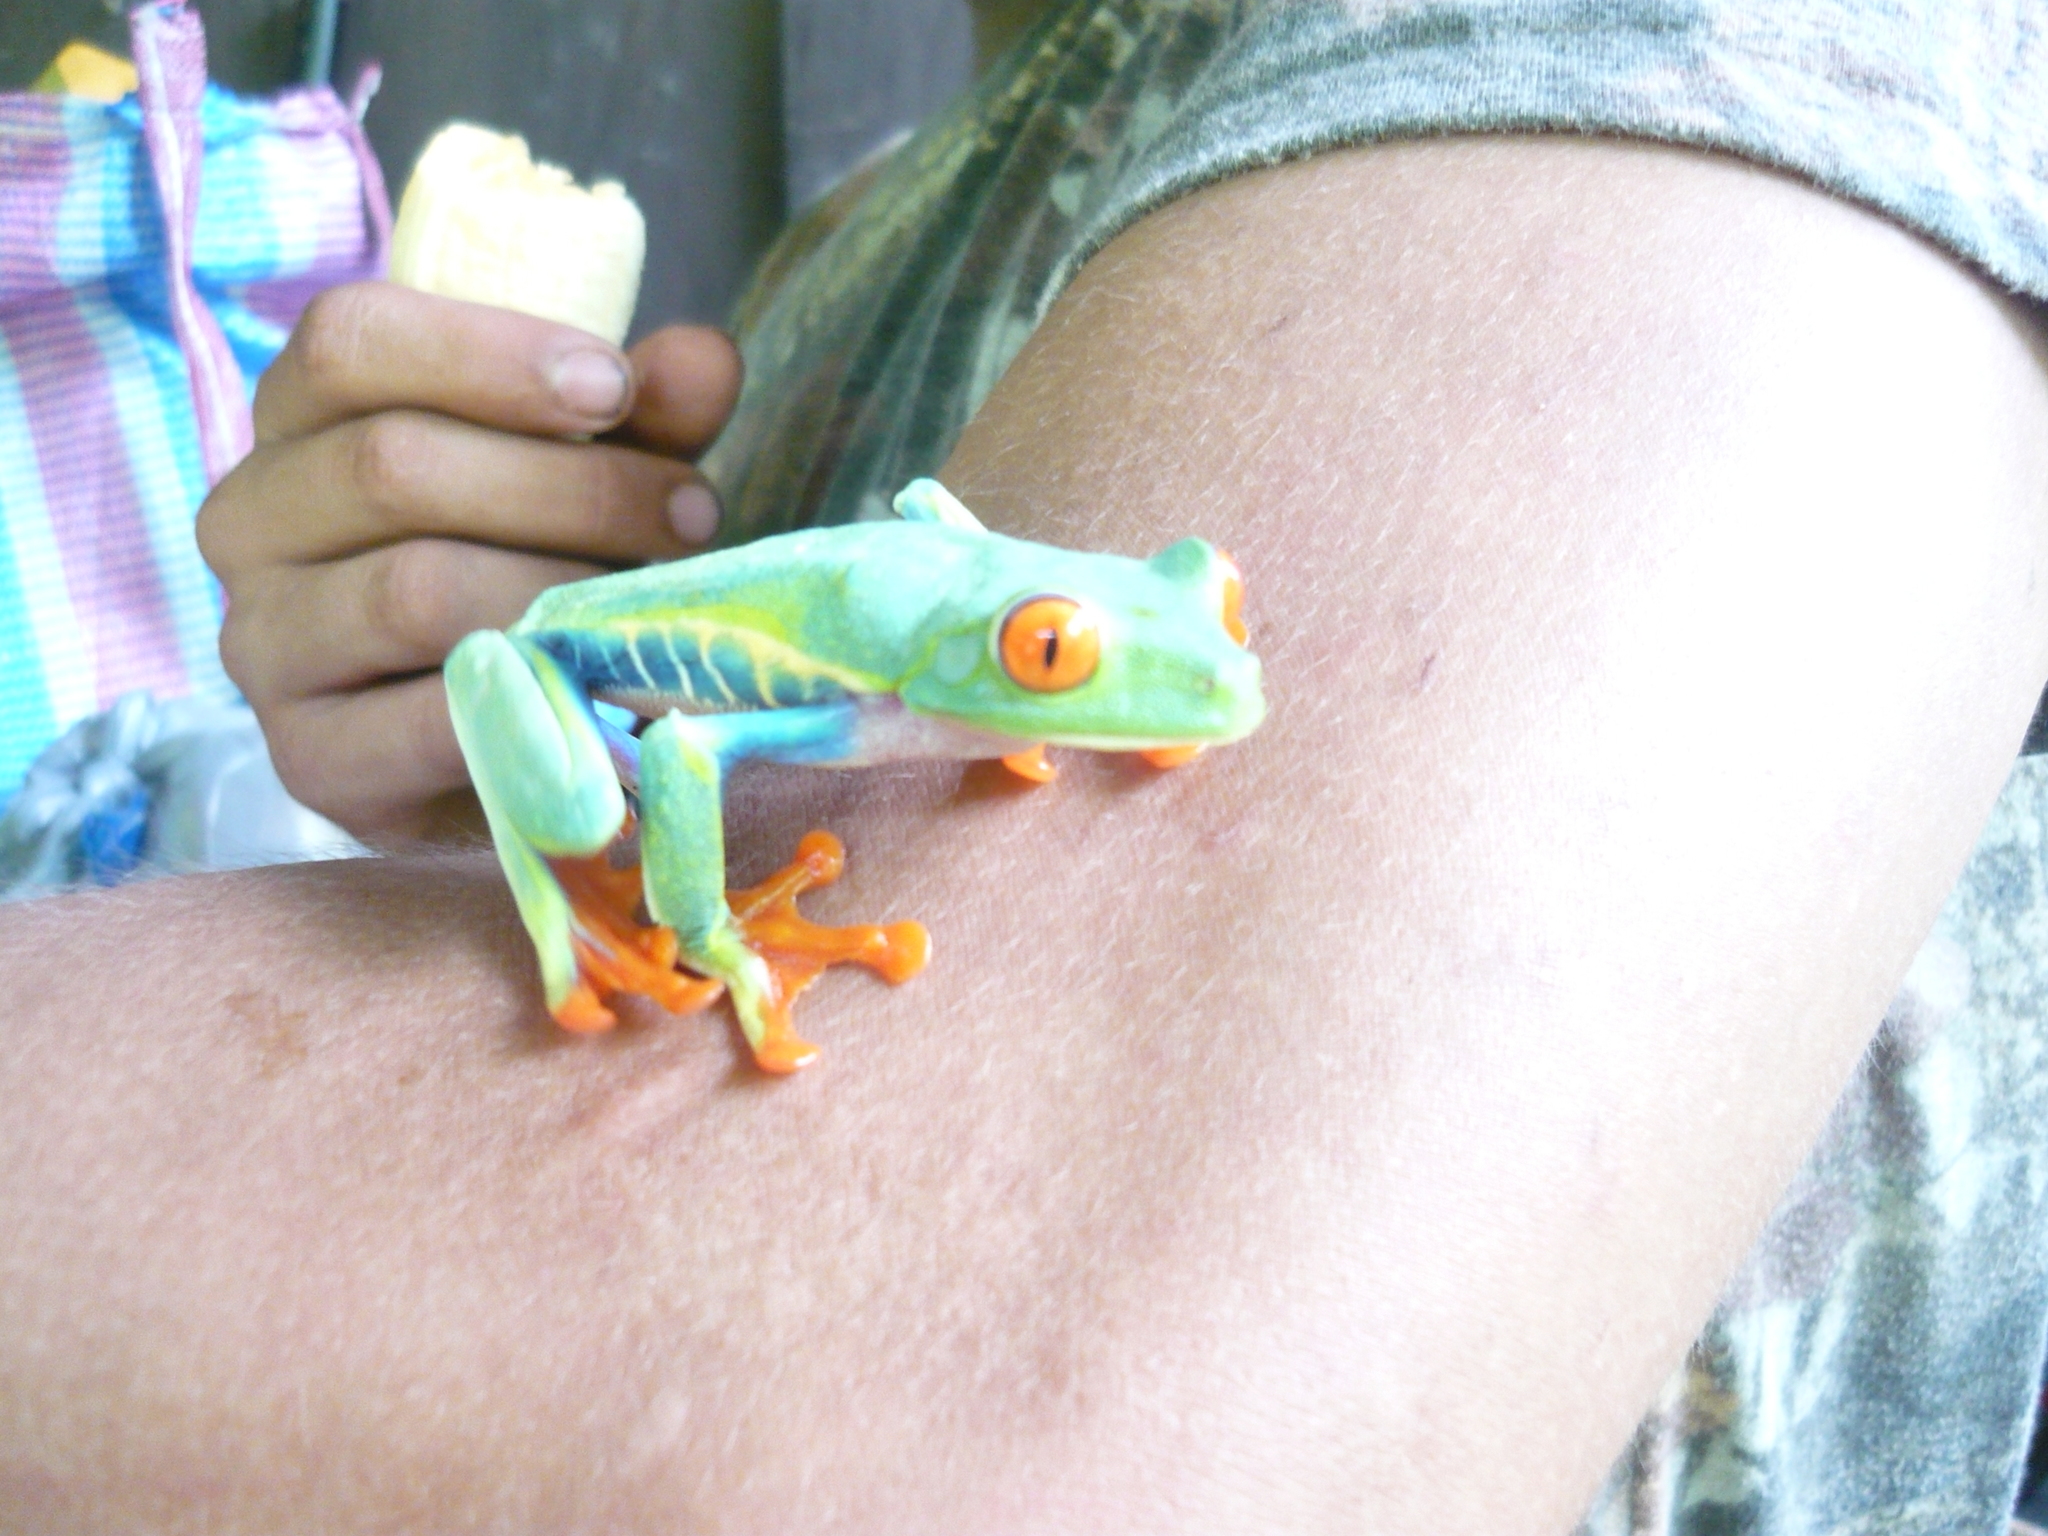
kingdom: Animalia
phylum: Chordata
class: Amphibia
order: Anura
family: Phyllomedusidae
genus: Agalychnis
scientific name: Agalychnis callidryas
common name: Red-eyed treefrog
